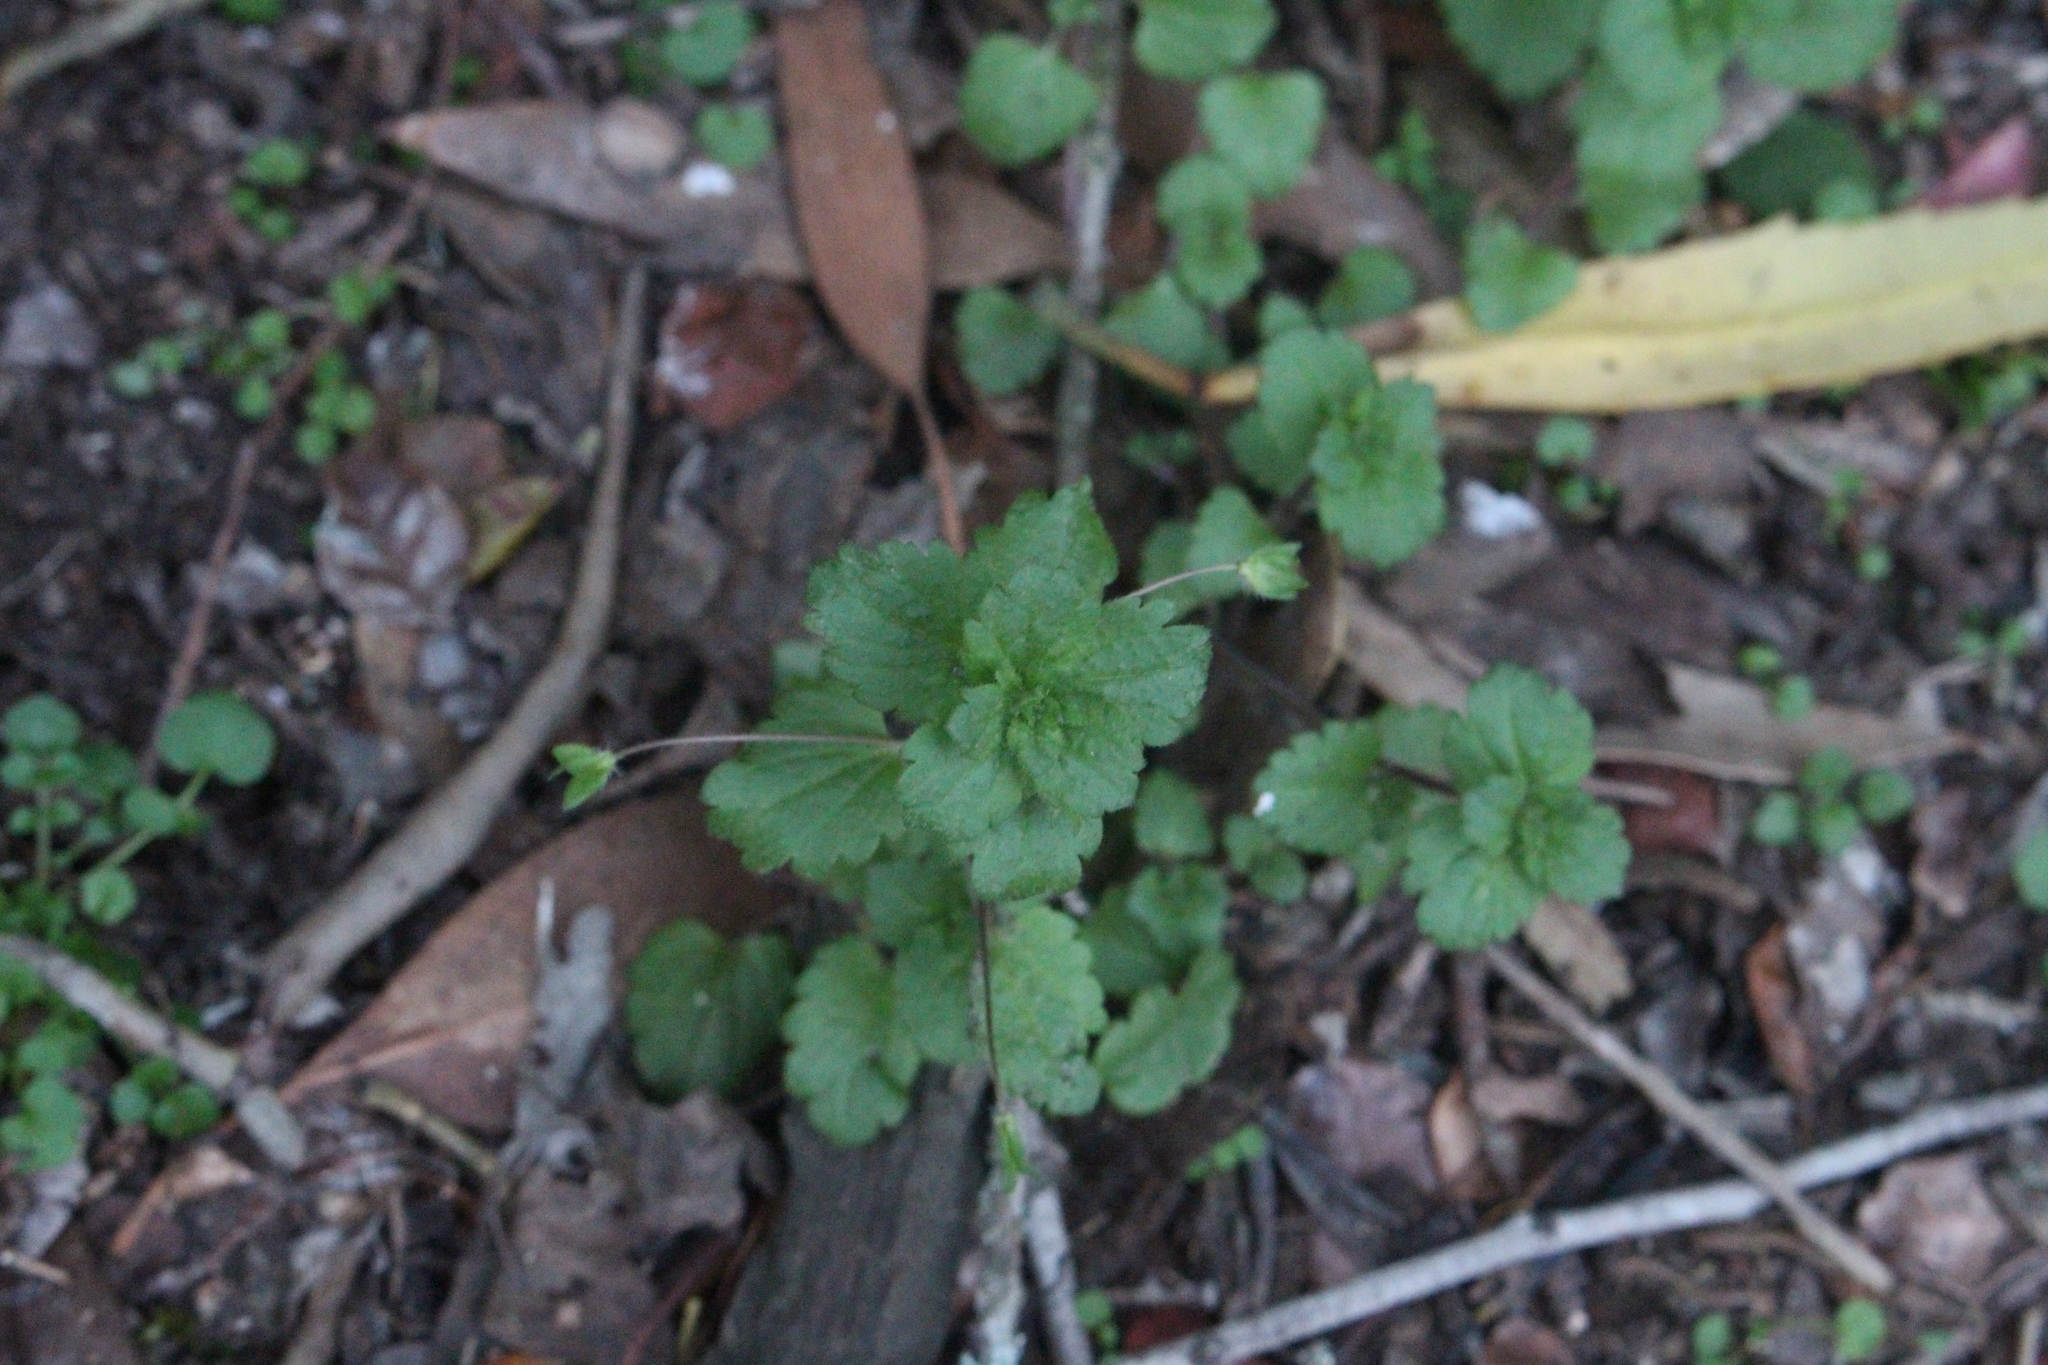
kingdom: Plantae
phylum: Tracheophyta
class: Magnoliopsida
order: Lamiales
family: Plantaginaceae
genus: Veronica
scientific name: Veronica persica
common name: Common field-speedwell
